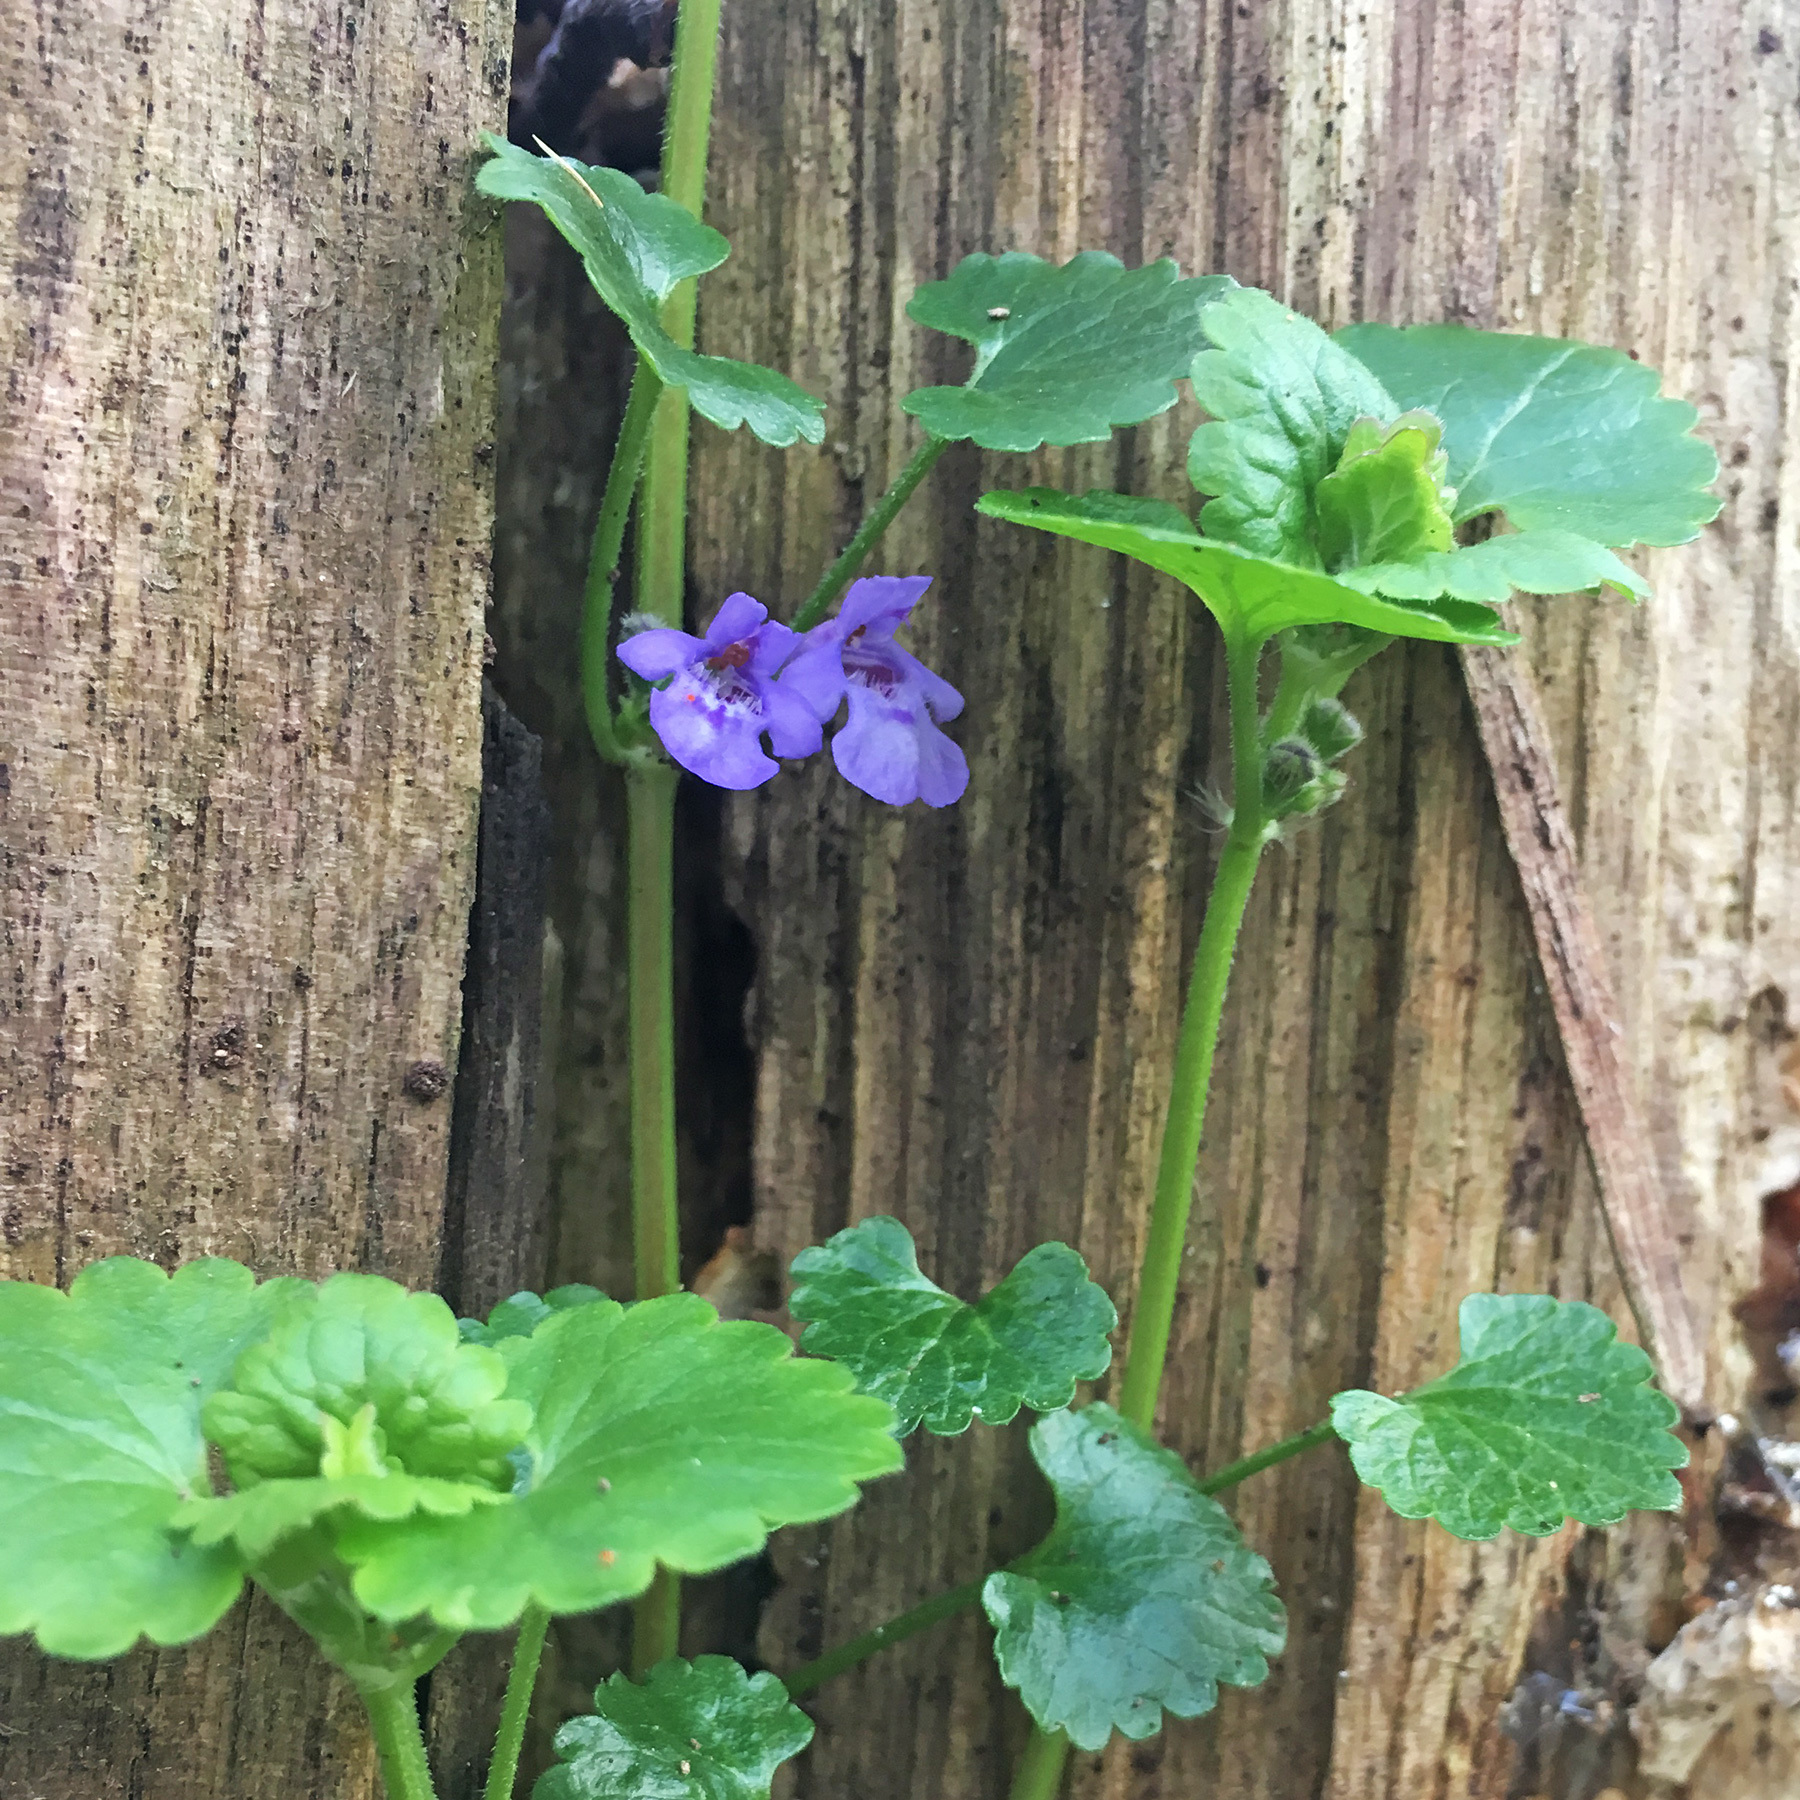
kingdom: Plantae
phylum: Tracheophyta
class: Magnoliopsida
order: Lamiales
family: Lamiaceae
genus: Glechoma
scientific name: Glechoma hederacea
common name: Ground ivy
